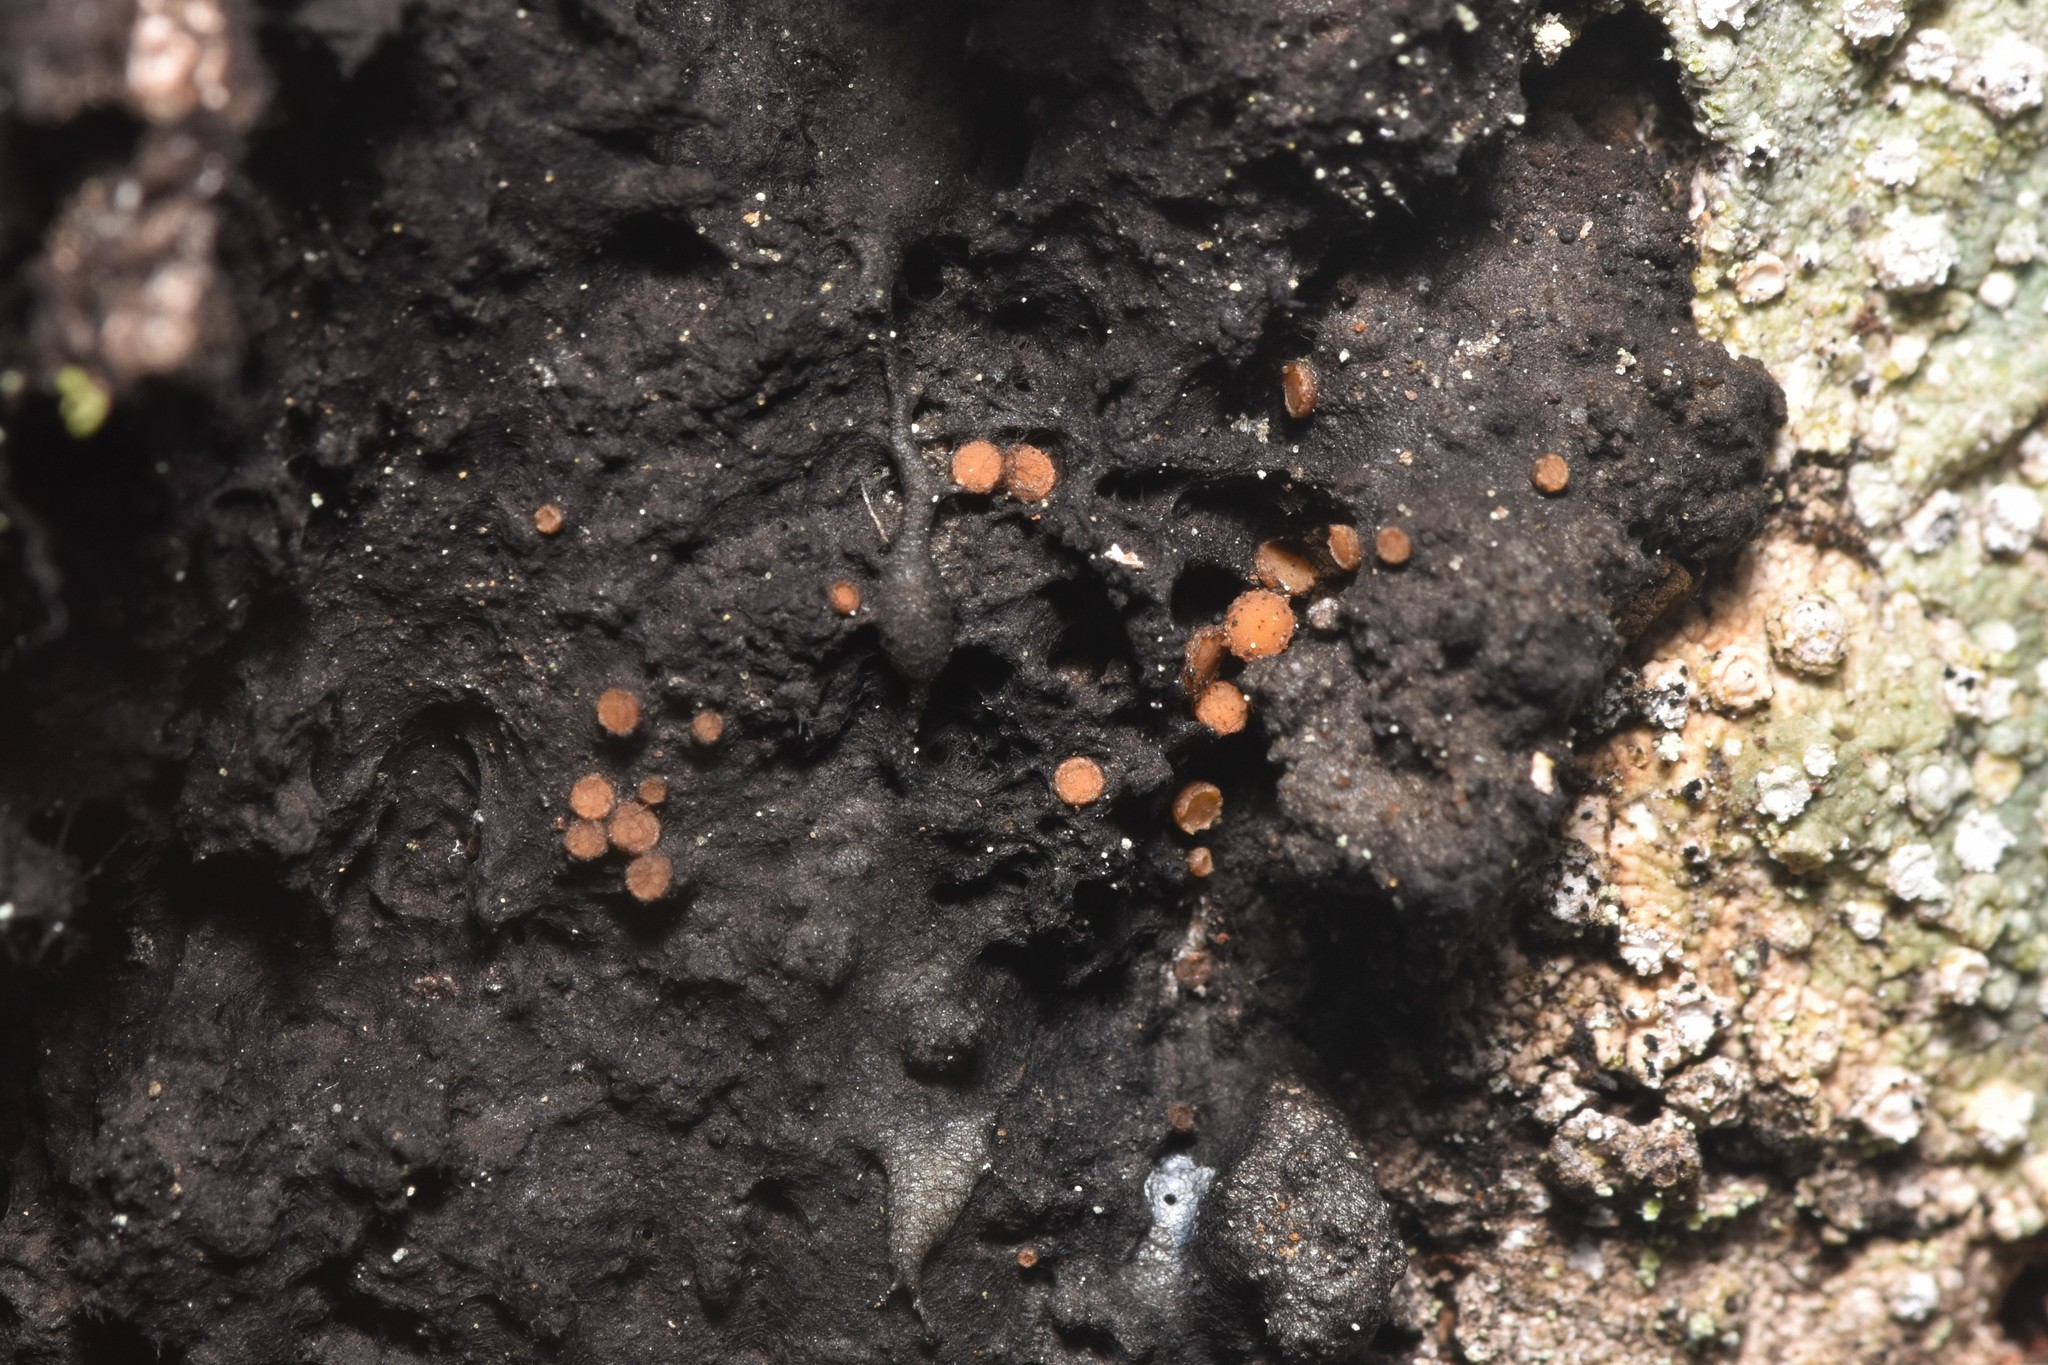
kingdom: Fungi
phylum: Ascomycota
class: Sareomycetes
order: Sareales
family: Sareaceae
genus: Sarea
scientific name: Sarea resinae
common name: Sarea lichen
